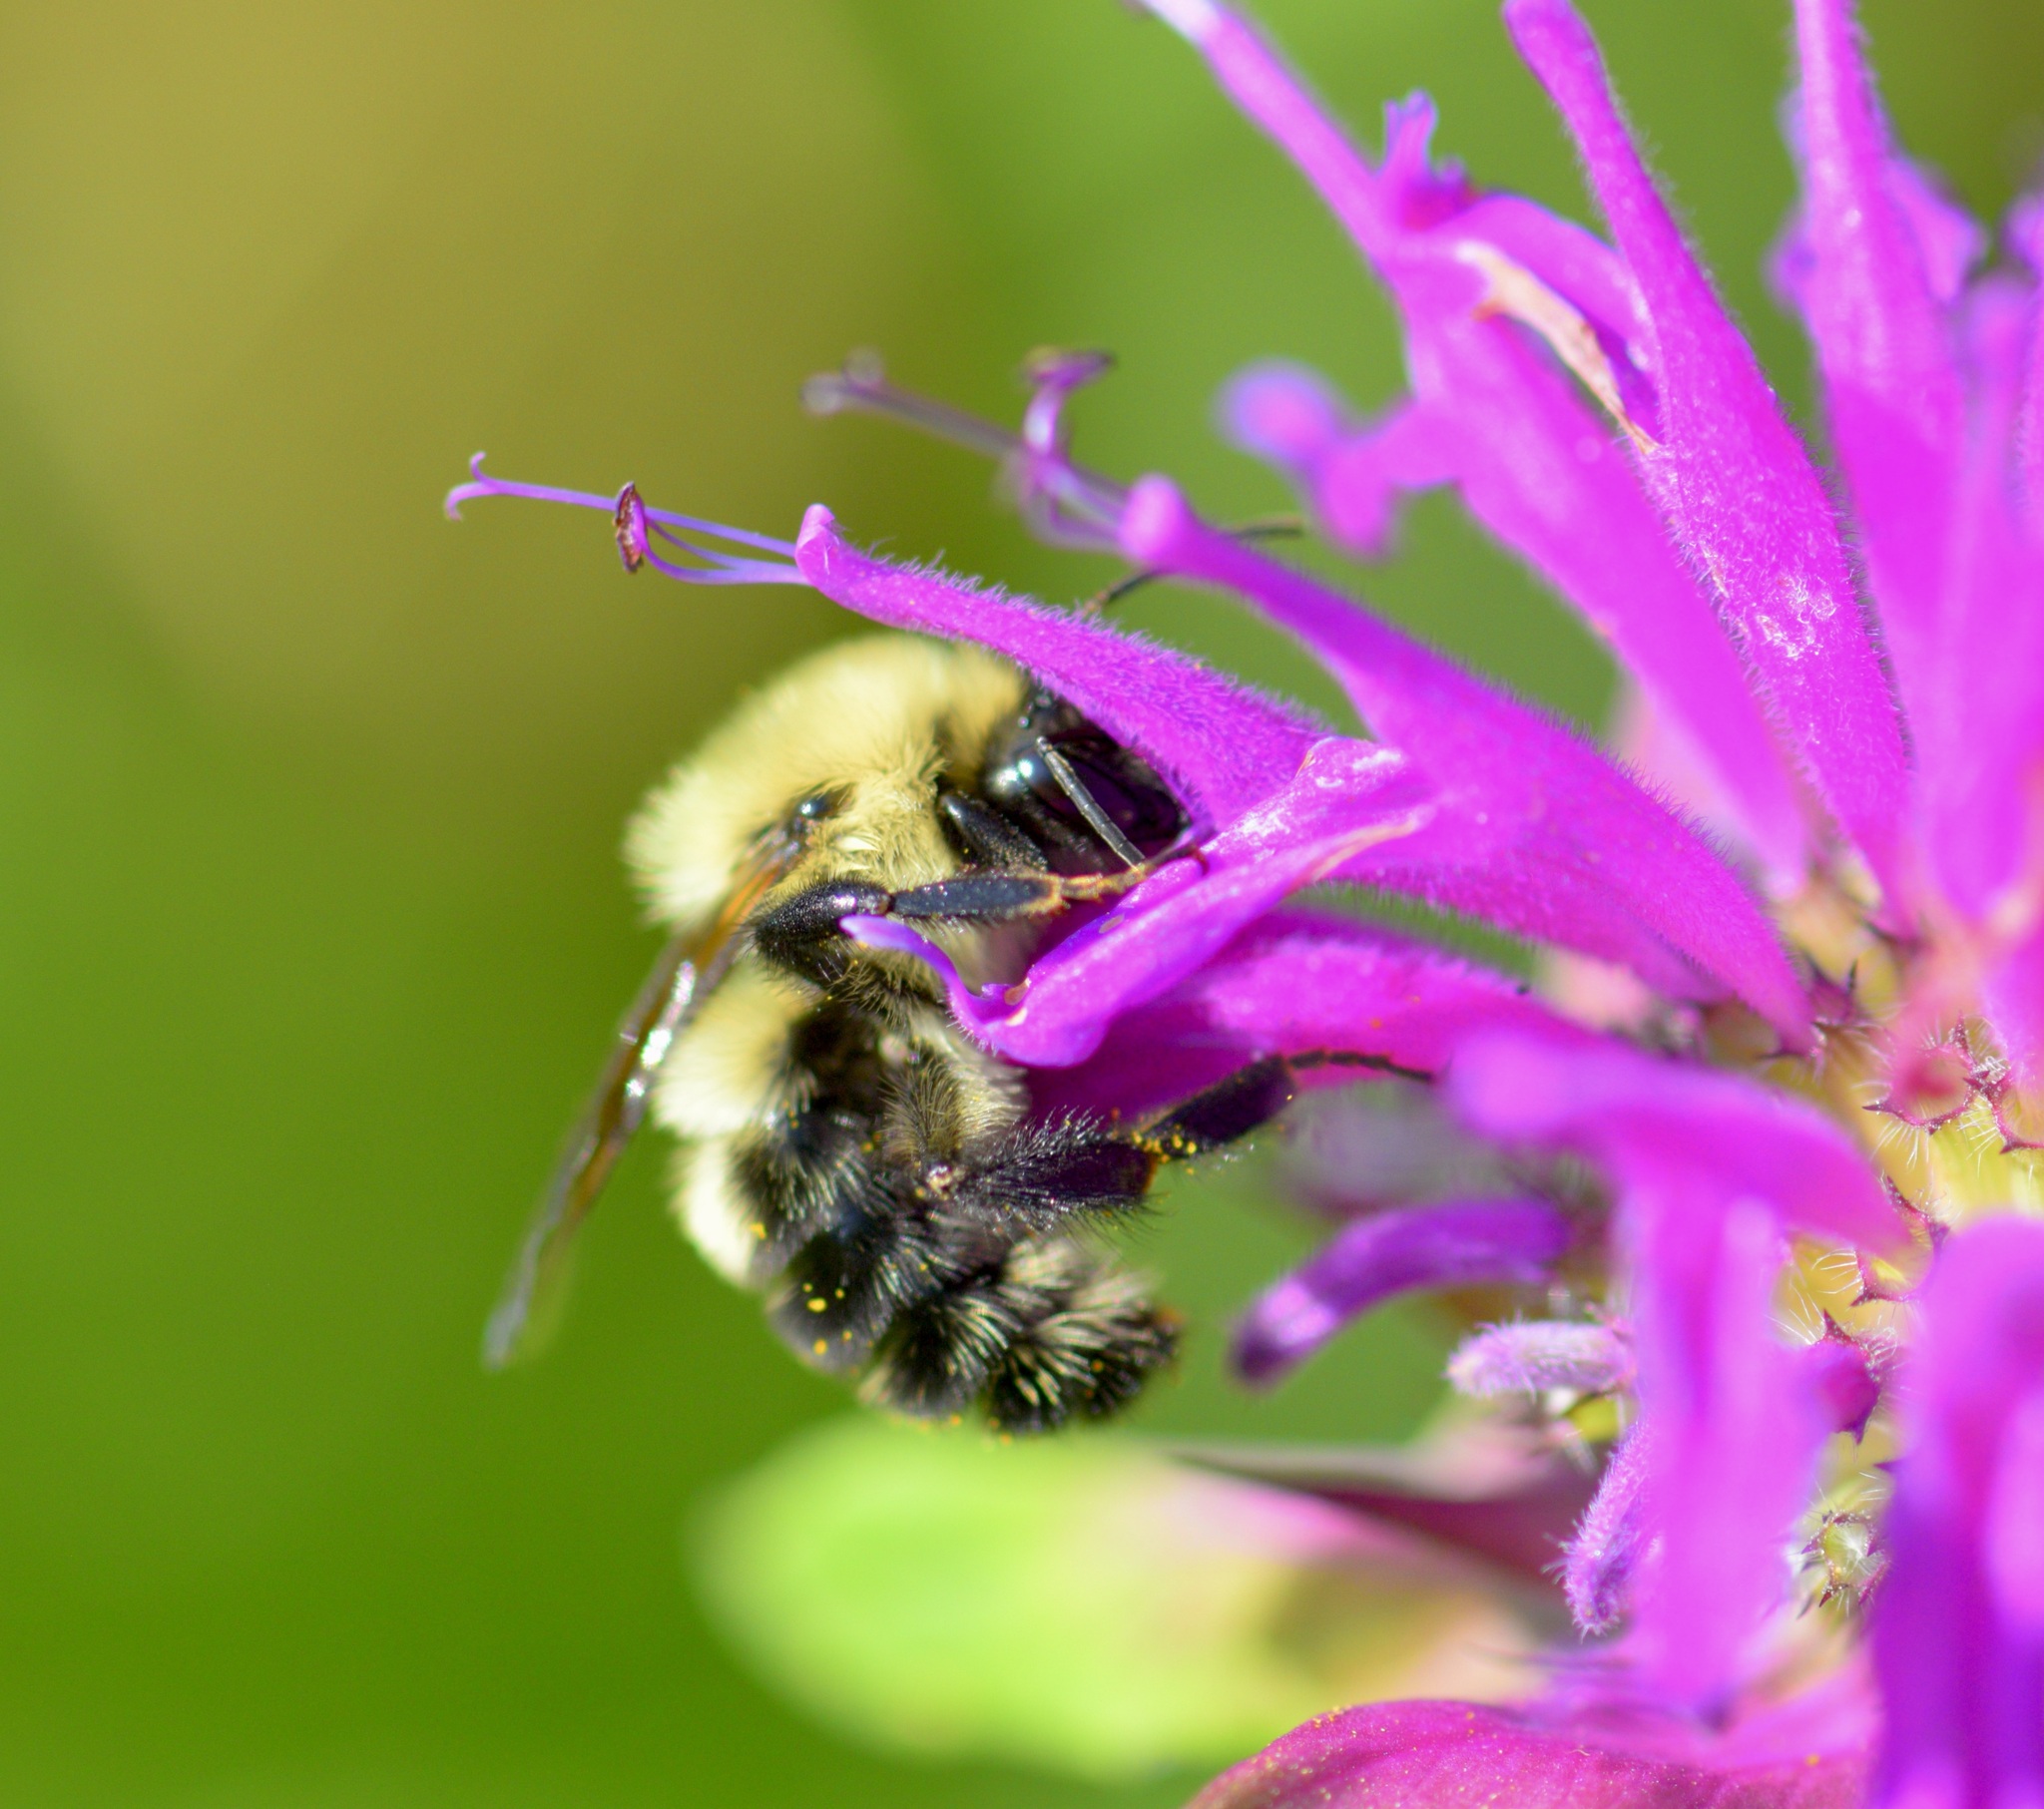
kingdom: Animalia
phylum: Arthropoda
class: Insecta
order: Hymenoptera
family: Apidae
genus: Bombus
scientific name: Bombus bimaculatus
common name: Two-spotted bumble bee
